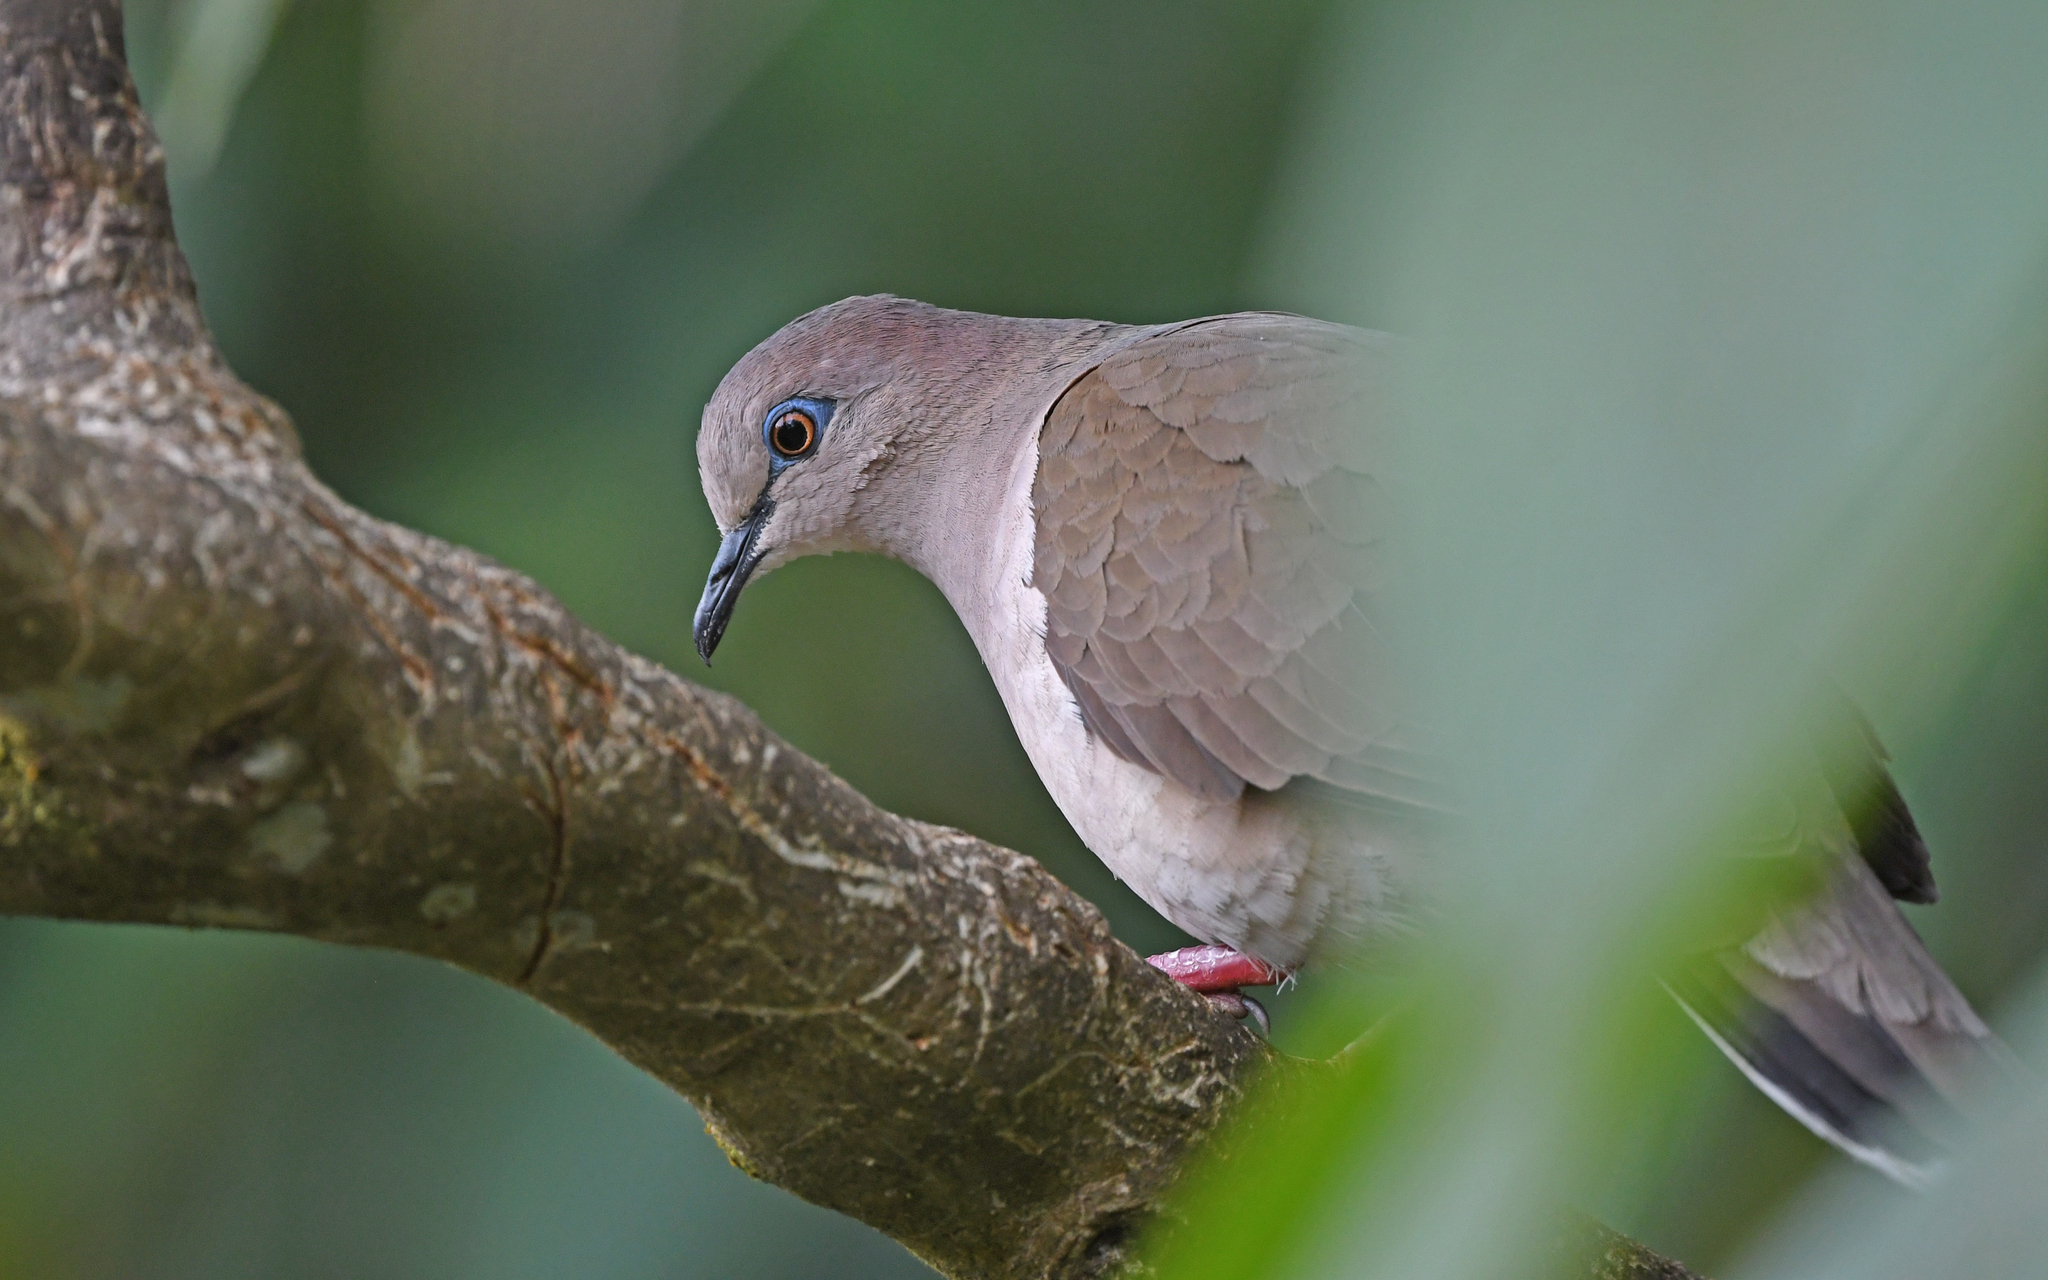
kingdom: Animalia
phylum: Chordata
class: Aves
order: Columbiformes
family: Columbidae
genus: Leptotila
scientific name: Leptotila verreauxi
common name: White-tipped dove
